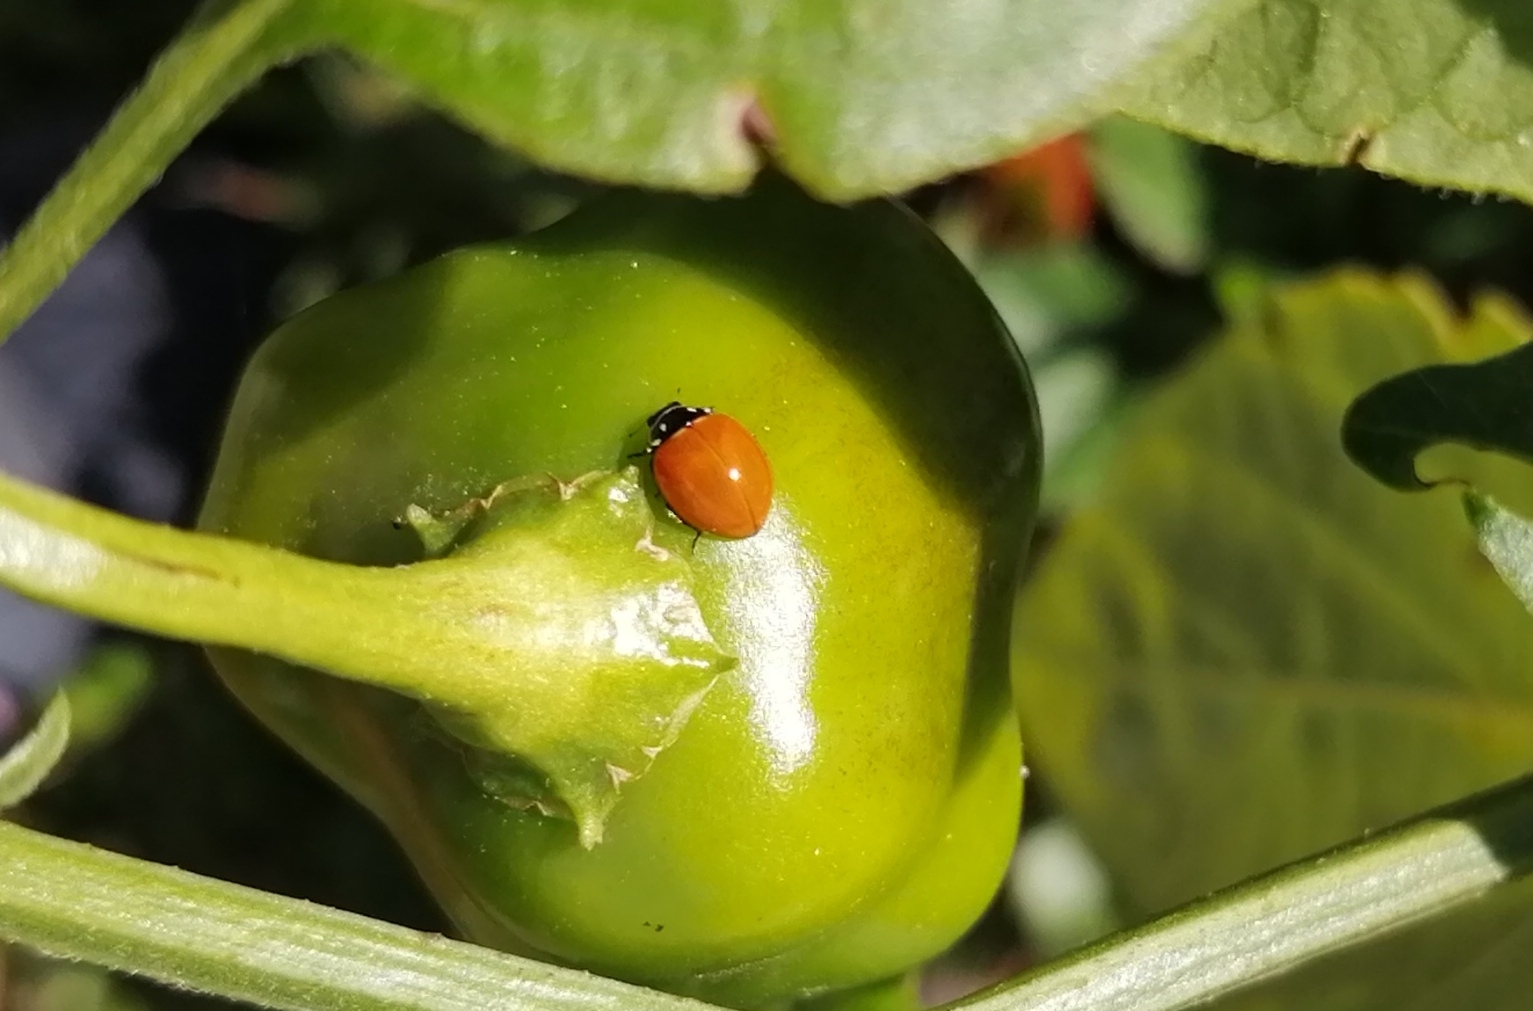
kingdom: Animalia
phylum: Arthropoda
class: Insecta
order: Coleoptera
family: Coccinellidae
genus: Cycloneda
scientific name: Cycloneda sanguinea
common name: Ladybird beetle
